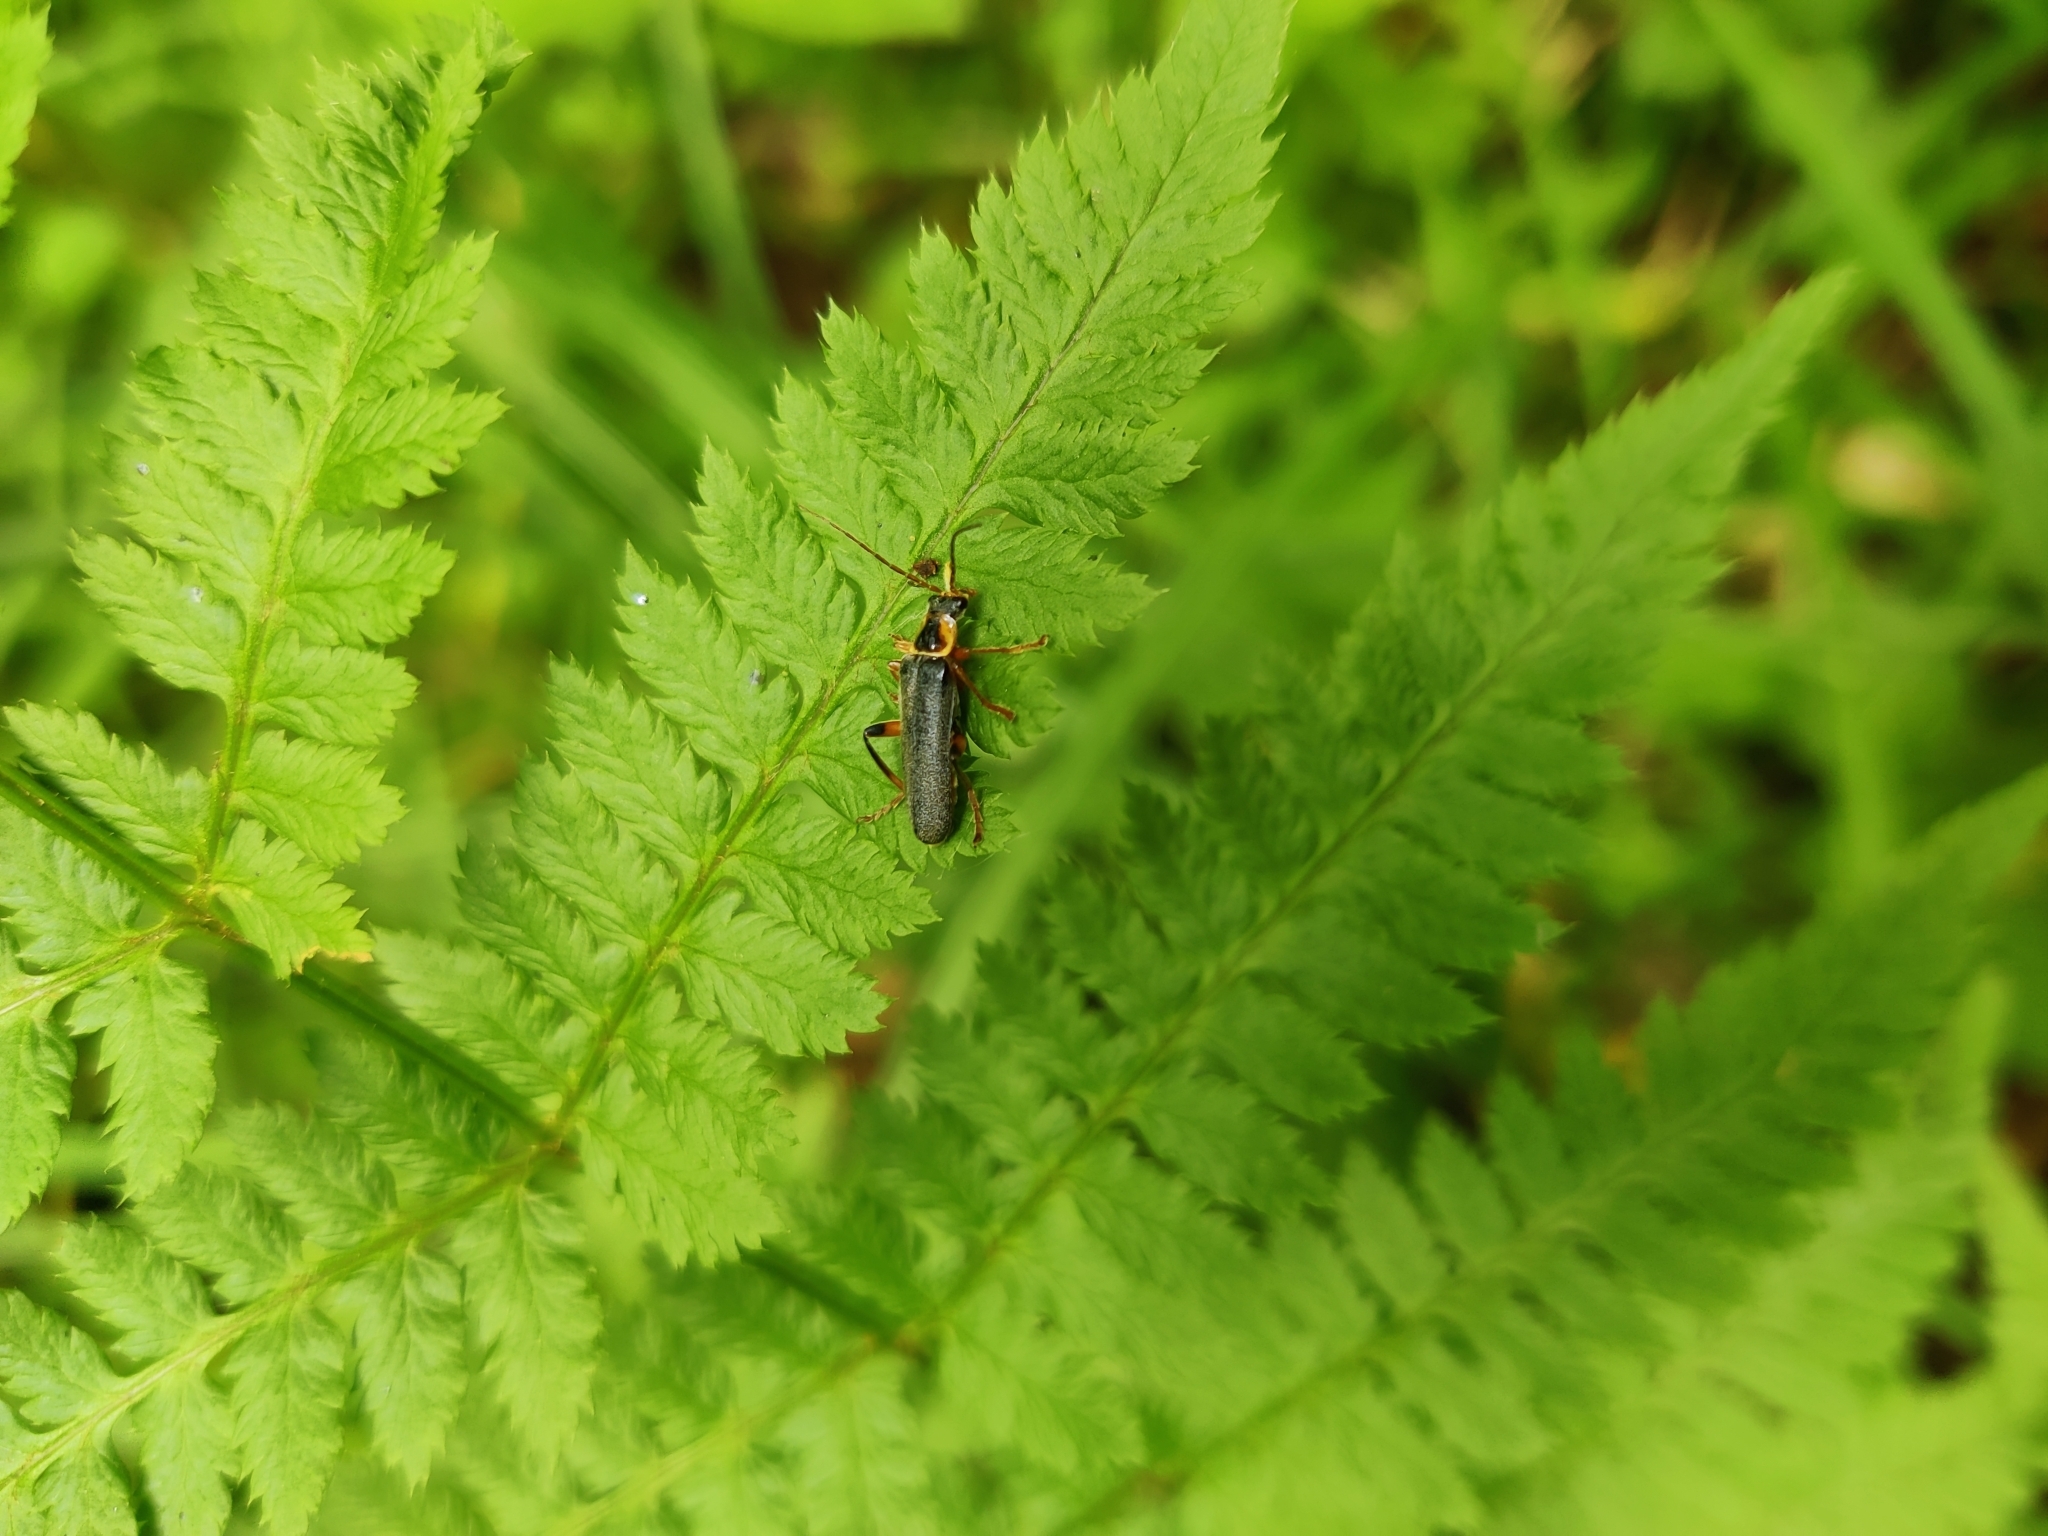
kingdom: Animalia
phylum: Arthropoda
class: Insecta
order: Coleoptera
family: Cantharidae
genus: Cantharis
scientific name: Cantharis nigricans
